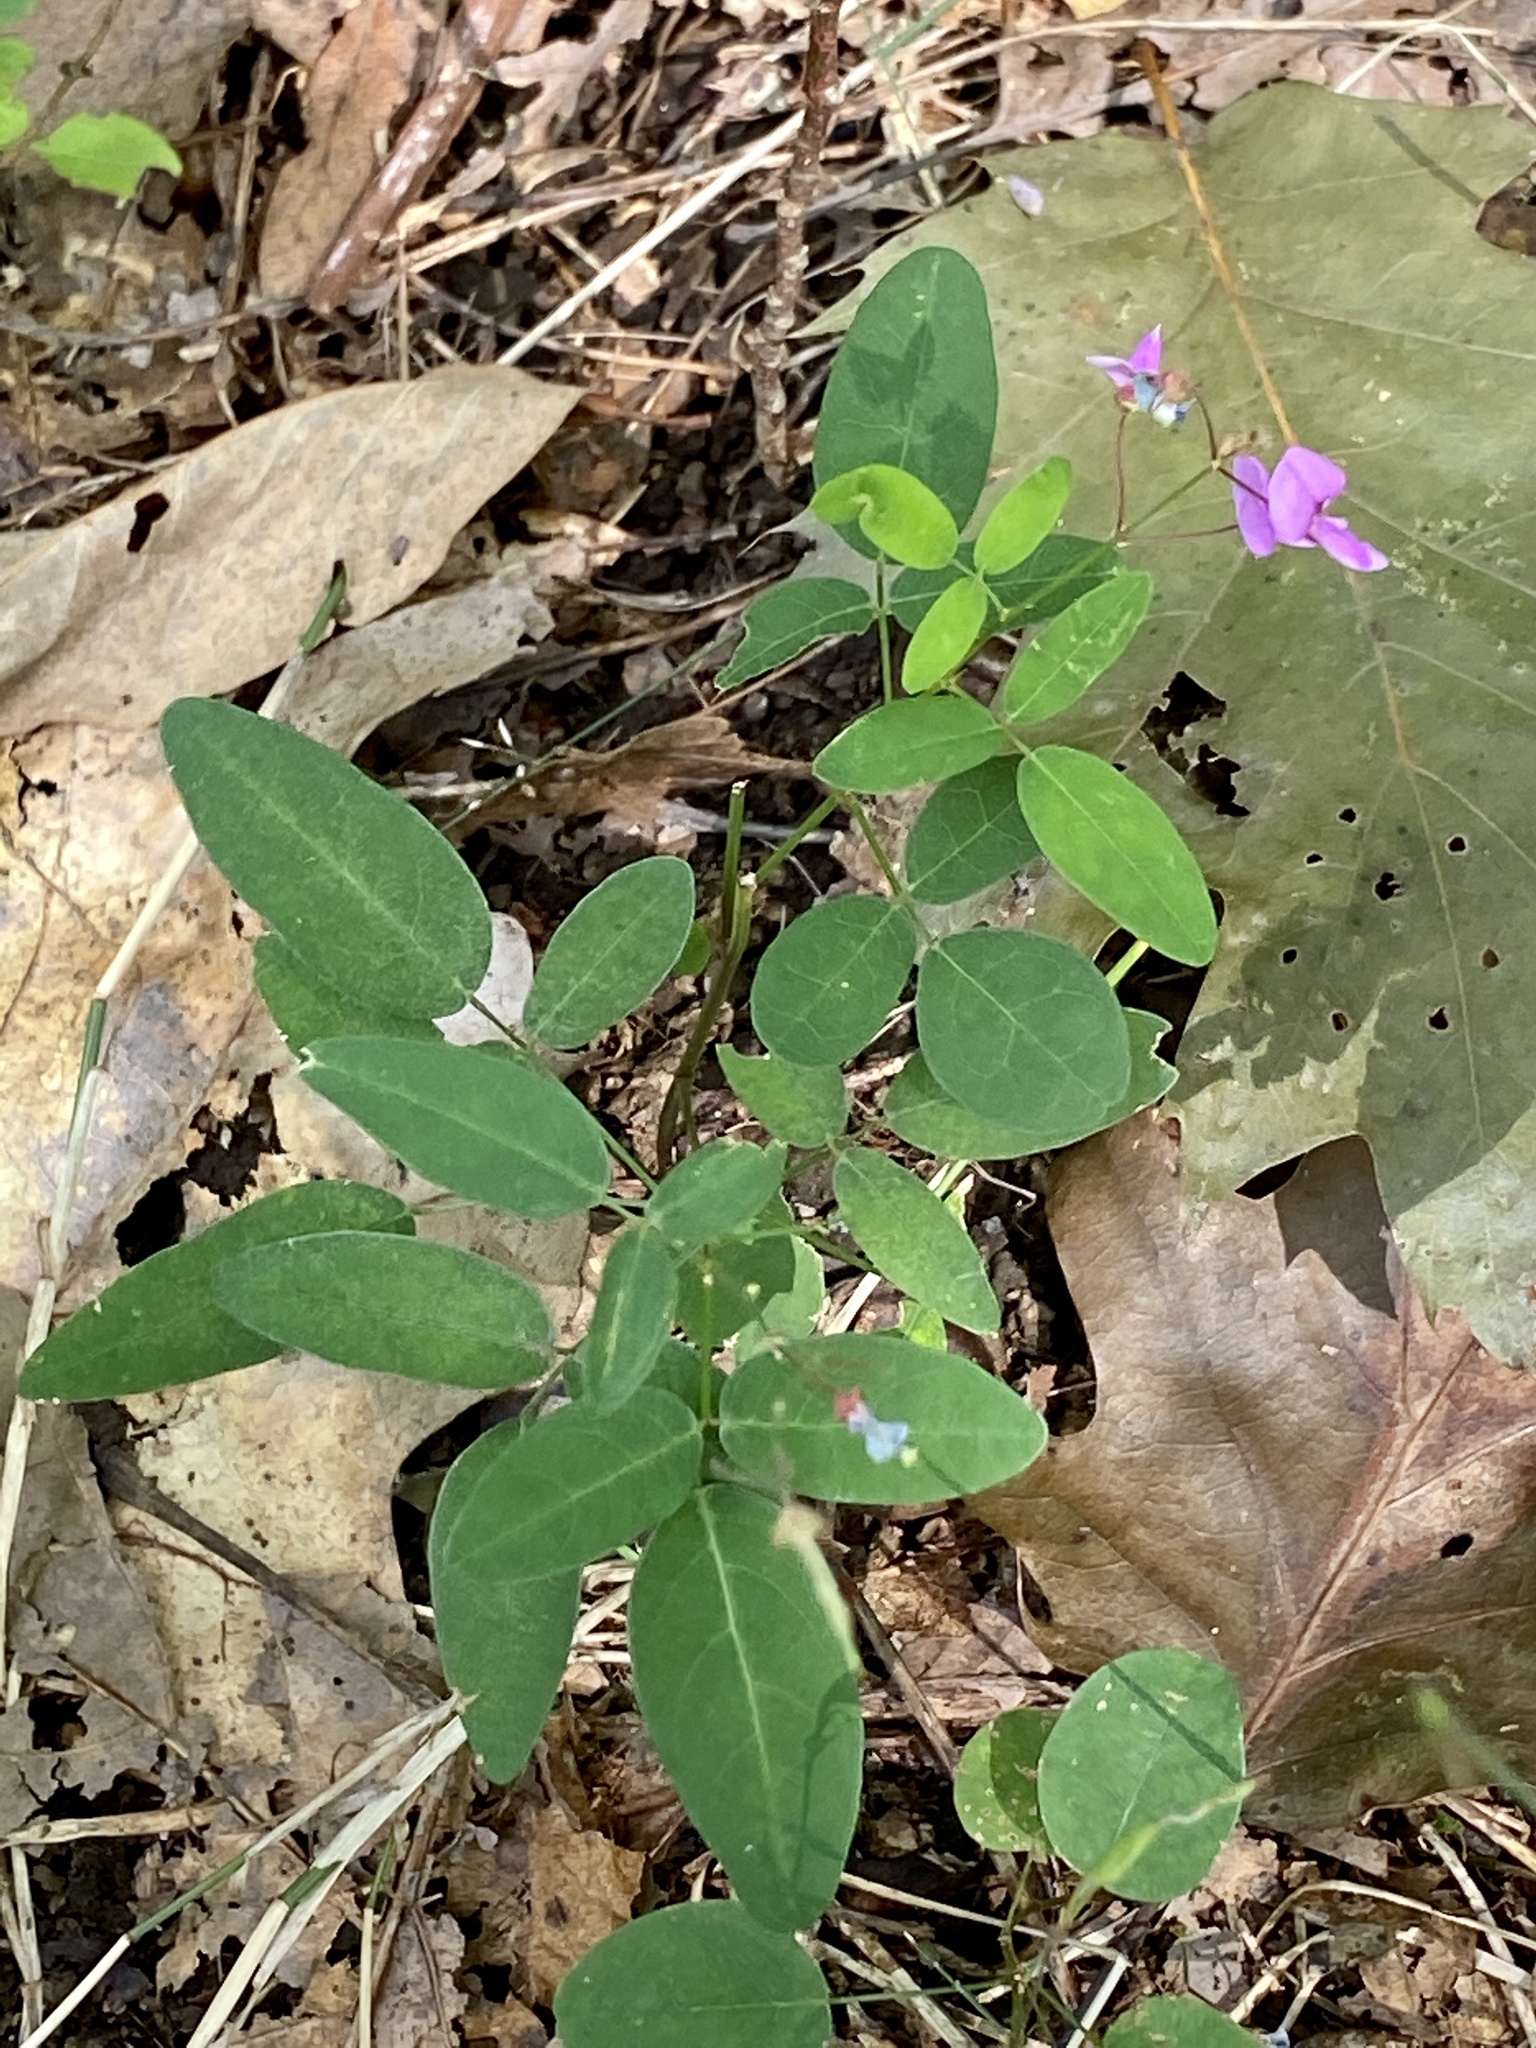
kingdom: Plantae
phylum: Tracheophyta
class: Magnoliopsida
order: Fabales
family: Fabaceae
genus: Desmodium
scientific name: Desmodium paniculatum
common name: Panicled tick-clover
